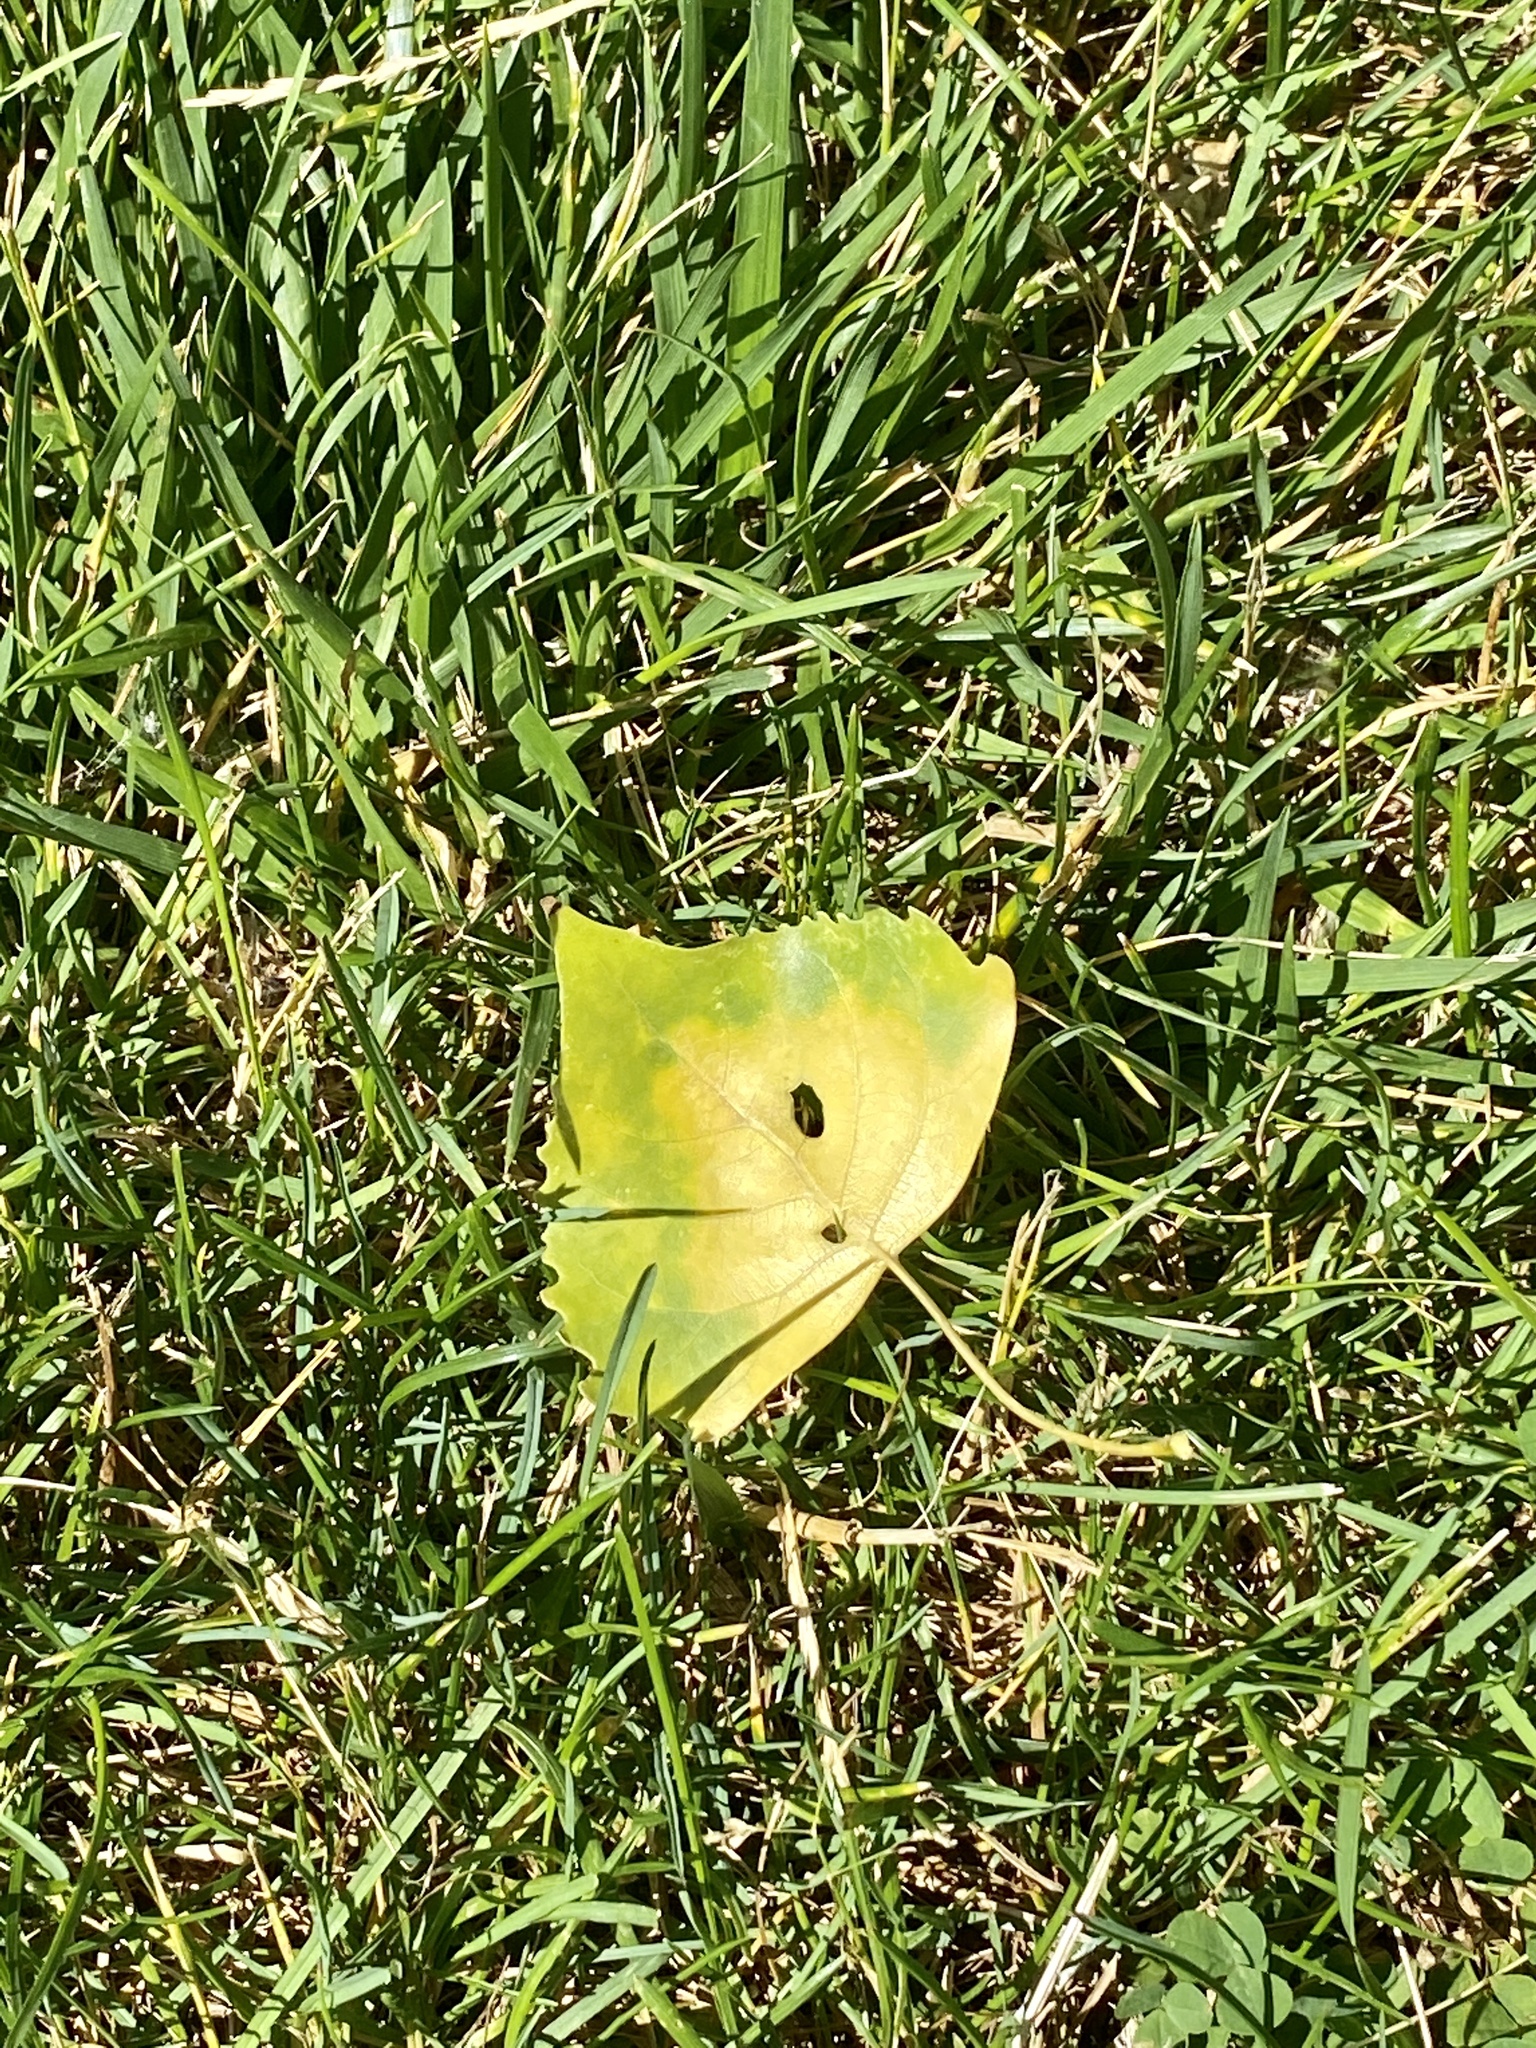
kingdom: Plantae
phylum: Tracheophyta
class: Magnoliopsida
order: Malpighiales
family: Salicaceae
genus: Populus
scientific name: Populus deltoides
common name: Eastern cottonwood
